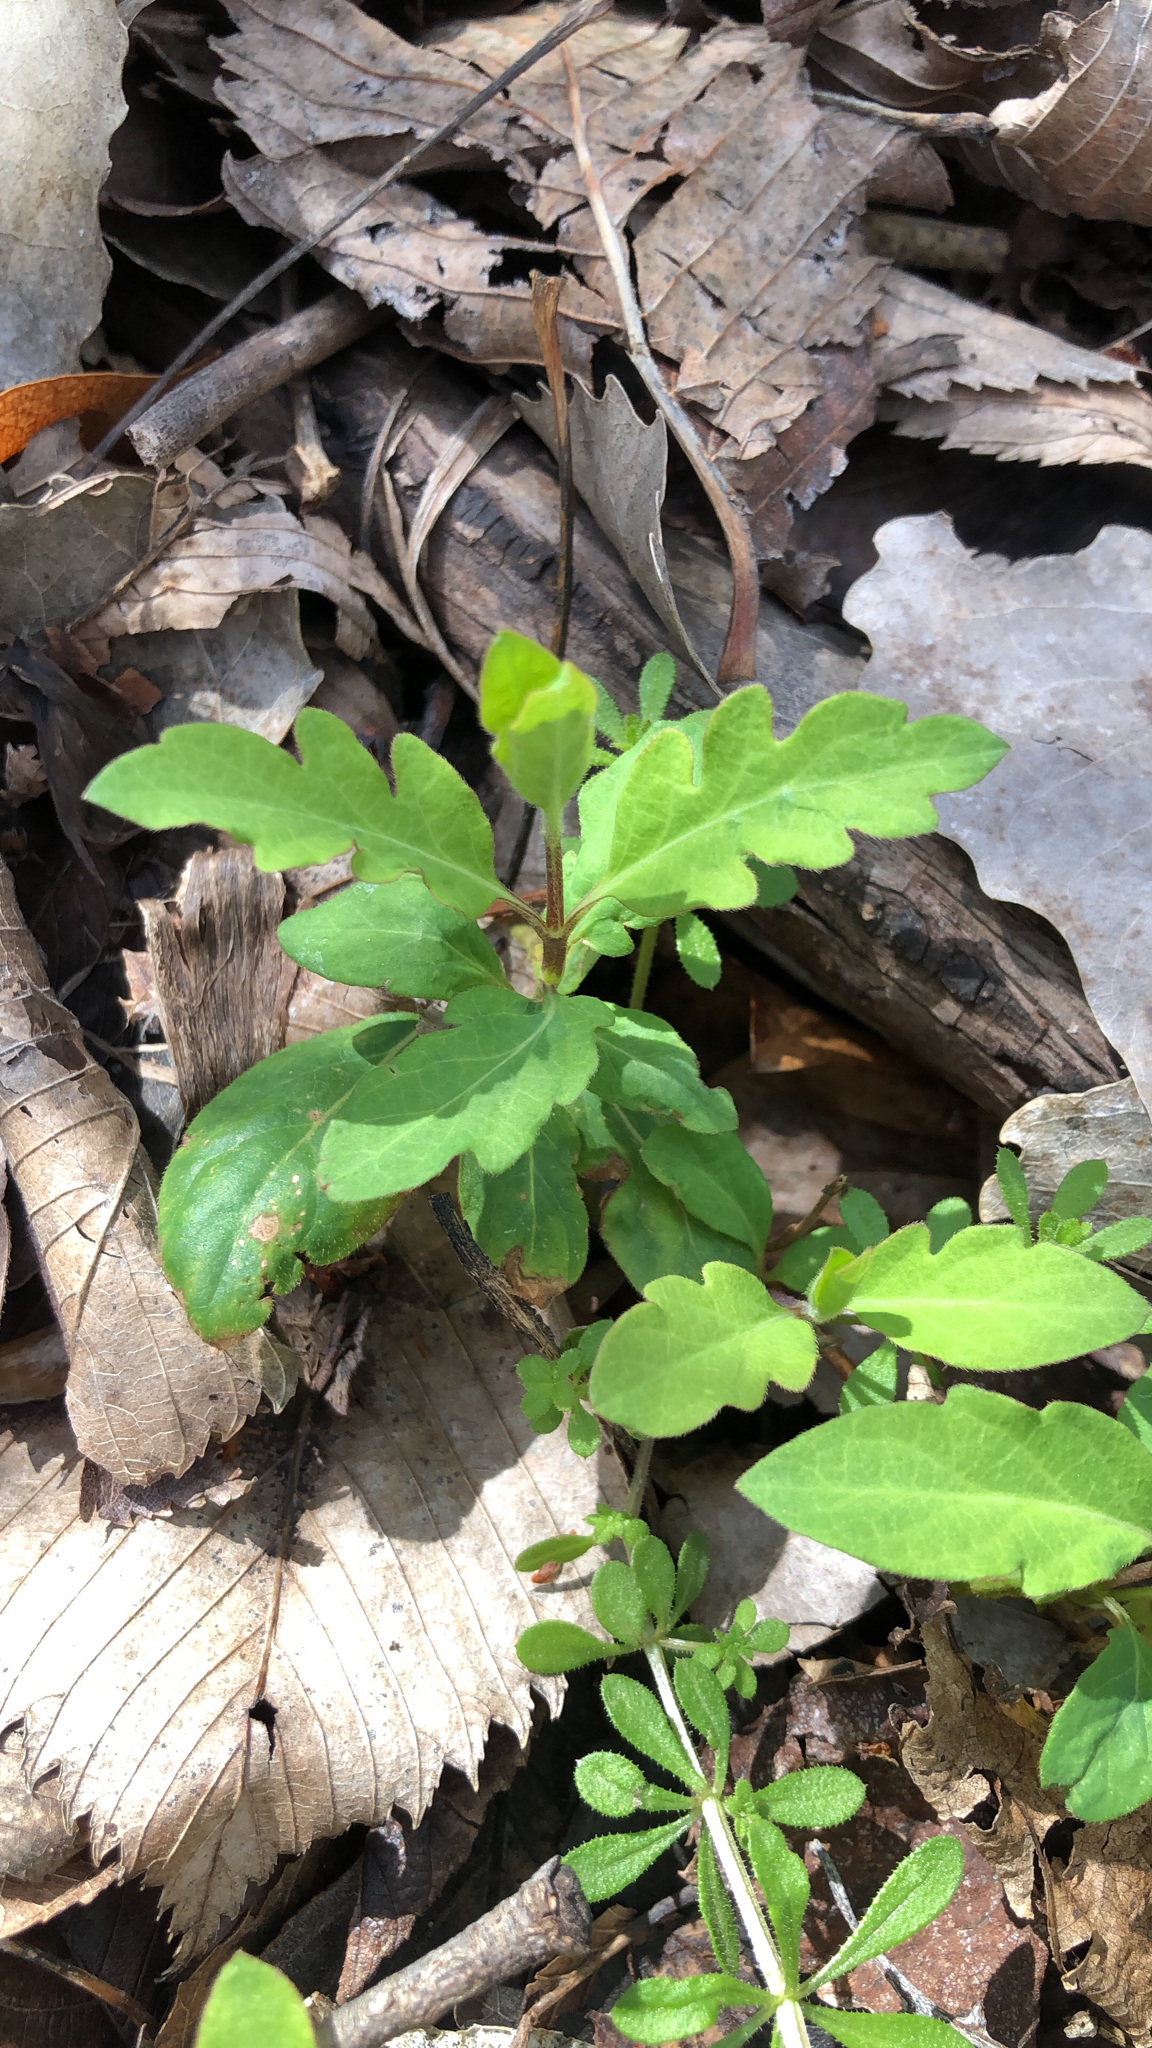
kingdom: Plantae
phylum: Tracheophyta
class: Magnoliopsida
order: Dipsacales
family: Caprifoliaceae
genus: Lonicera
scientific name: Lonicera japonica
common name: Japanese honeysuckle
